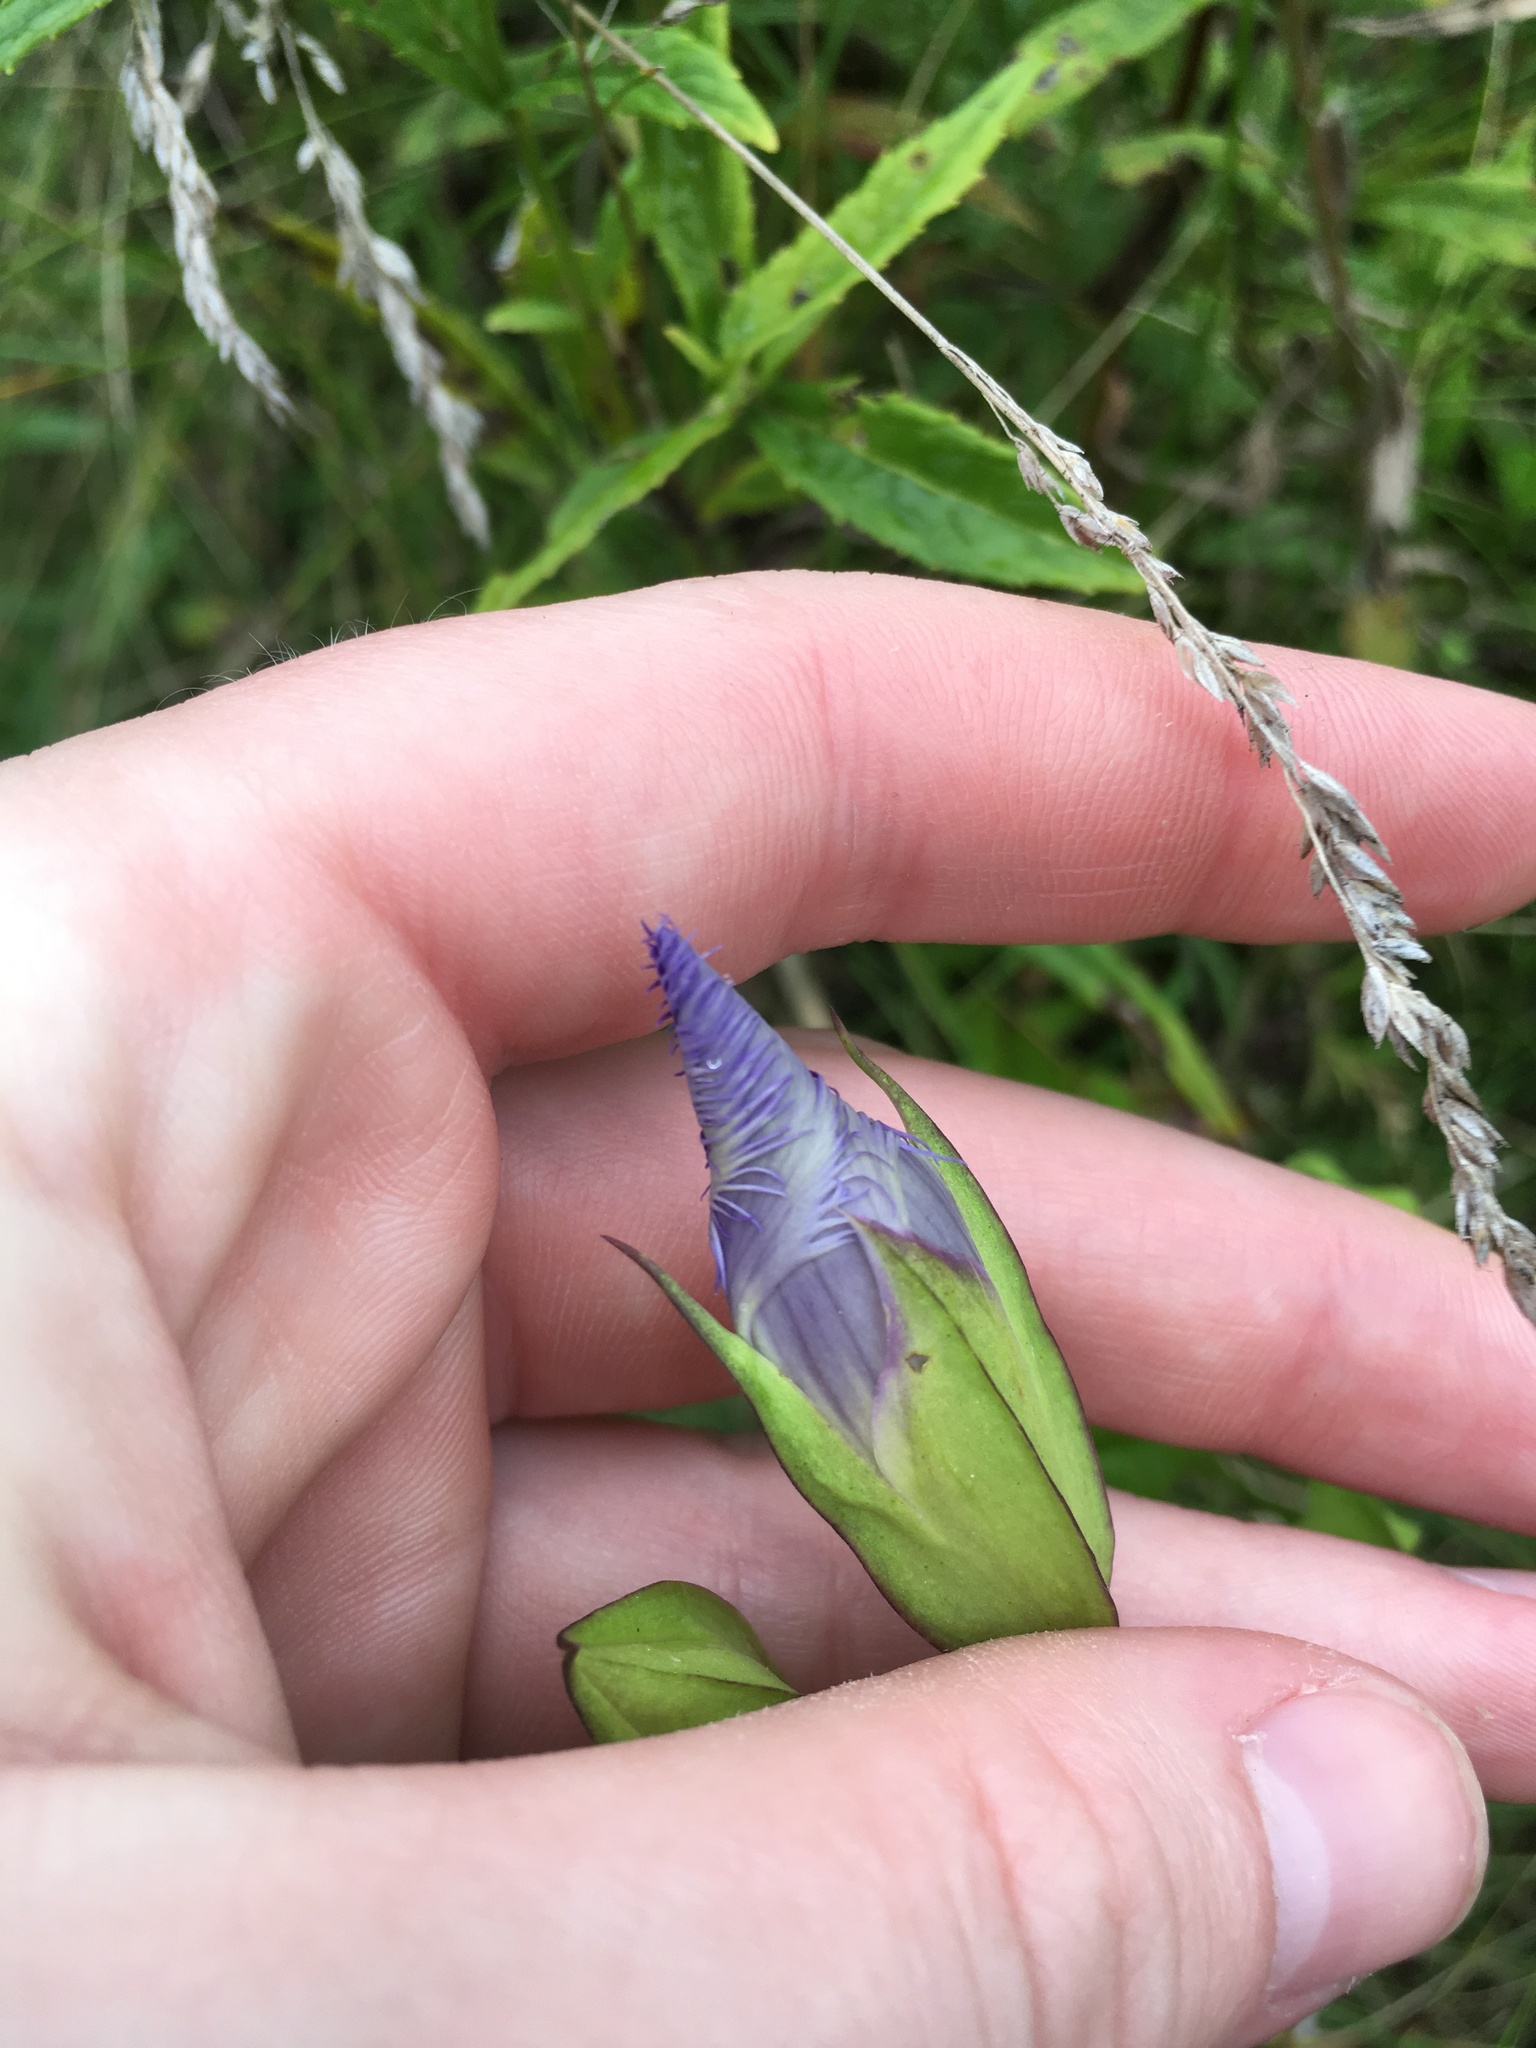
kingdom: Plantae
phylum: Tracheophyta
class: Magnoliopsida
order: Gentianales
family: Gentianaceae
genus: Gentianopsis
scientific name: Gentianopsis crinita
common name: Fringed-gentian
